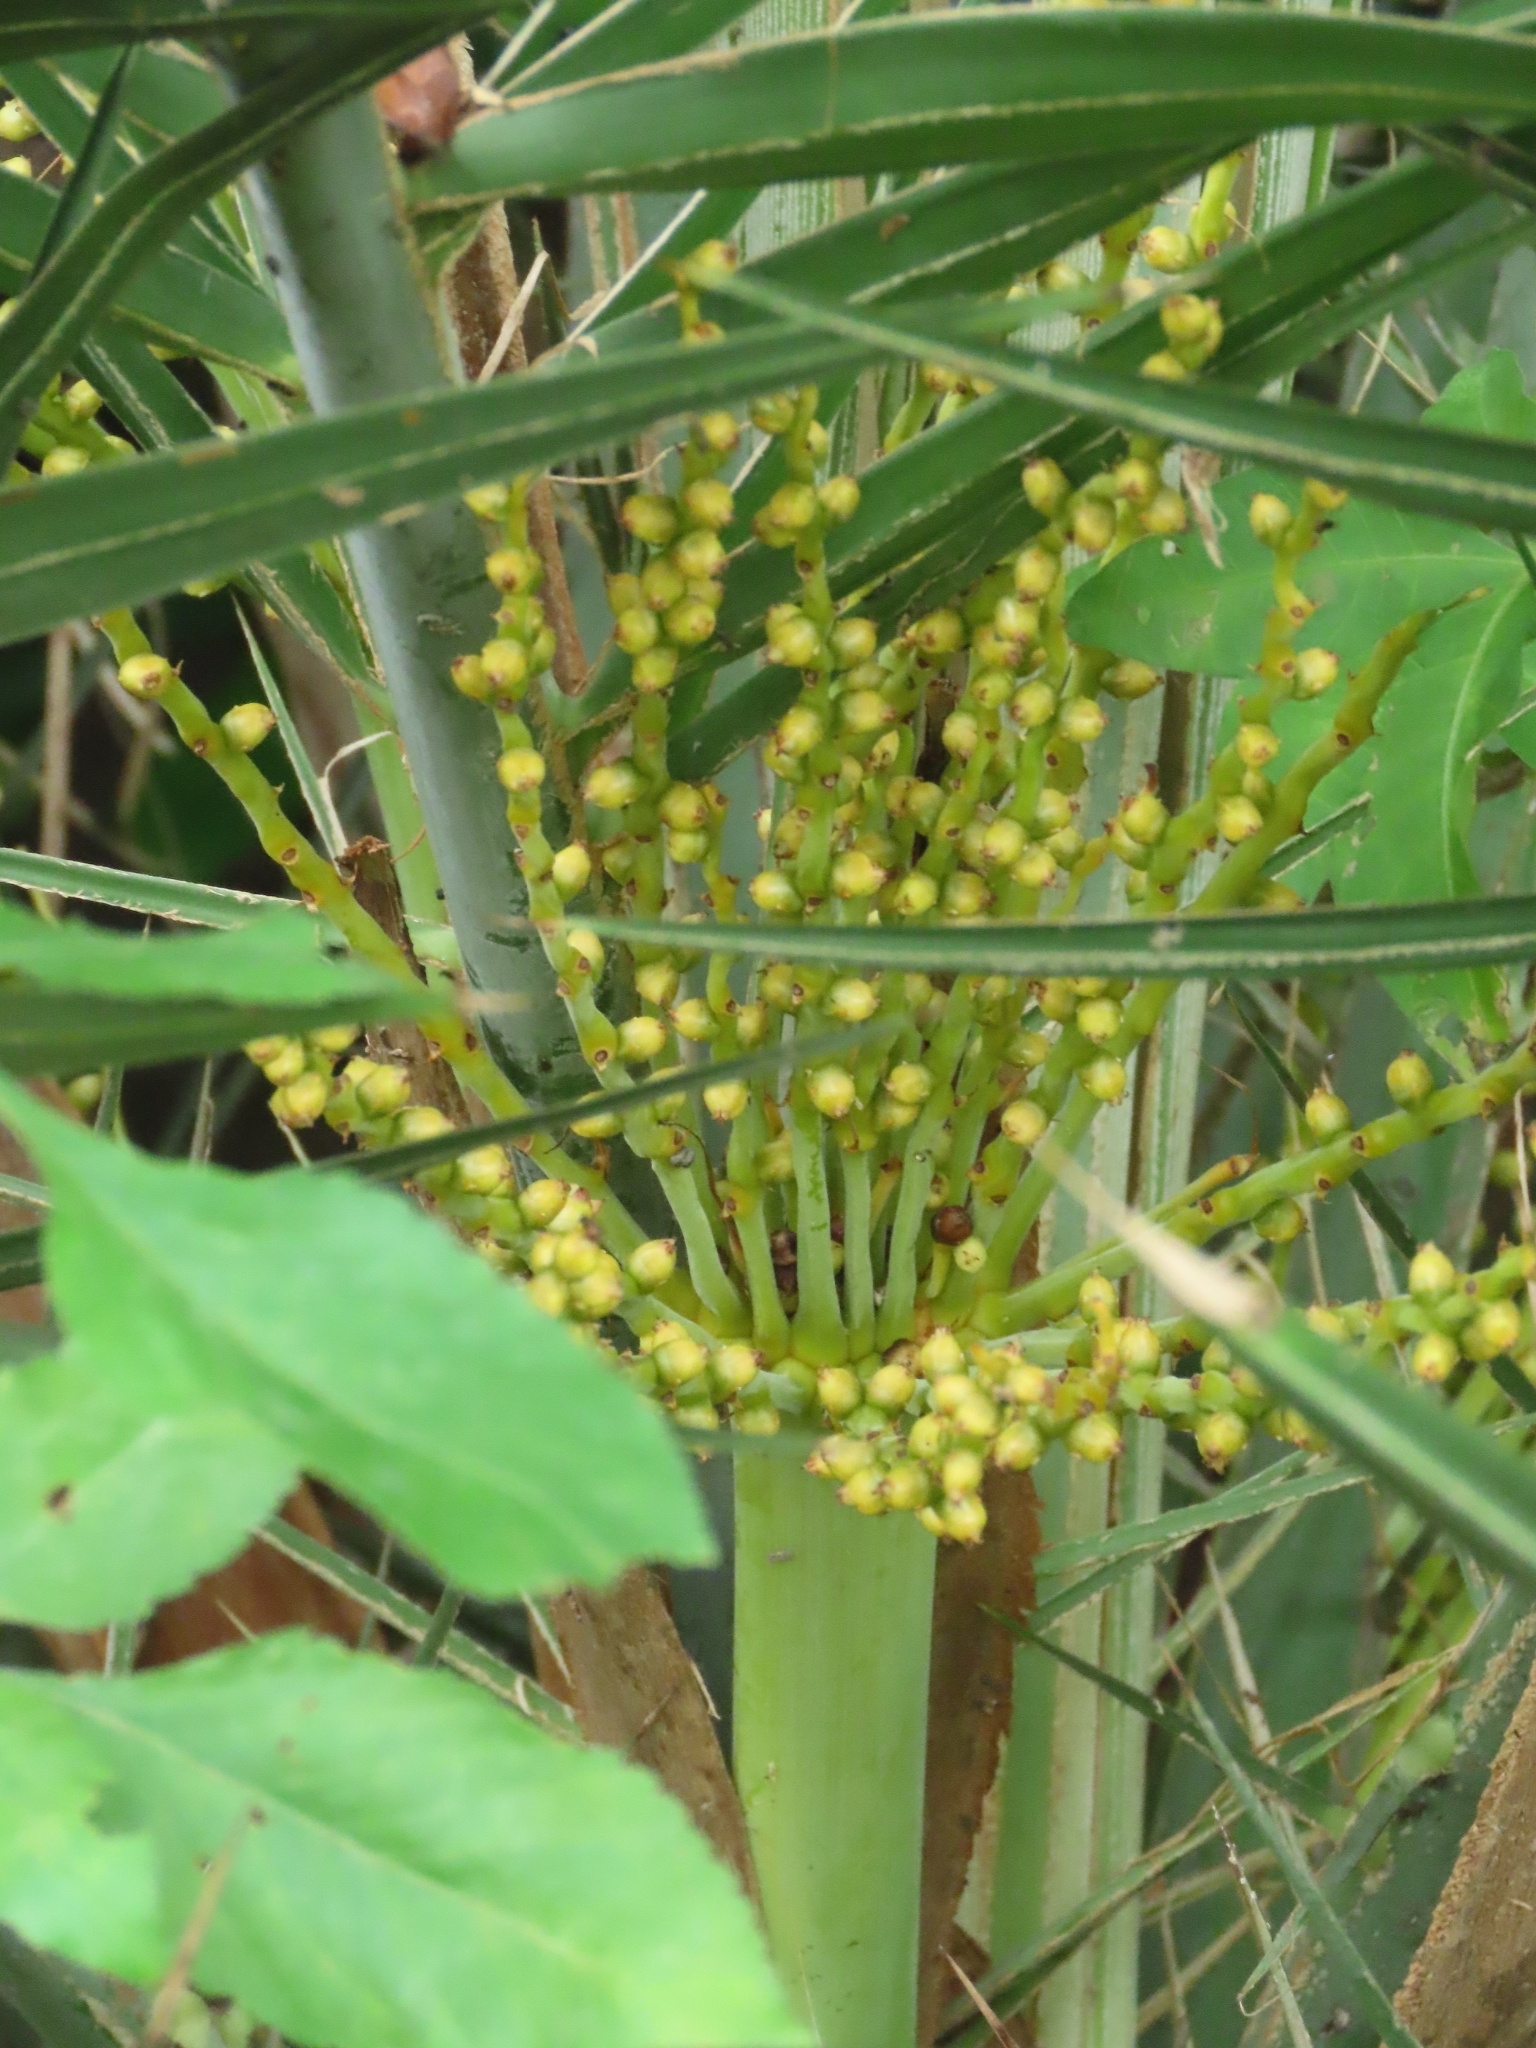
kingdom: Plantae
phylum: Tracheophyta
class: Liliopsida
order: Arecales
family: Arecaceae
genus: Phoenix
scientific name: Phoenix loureiroi
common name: Loureiro's palm
